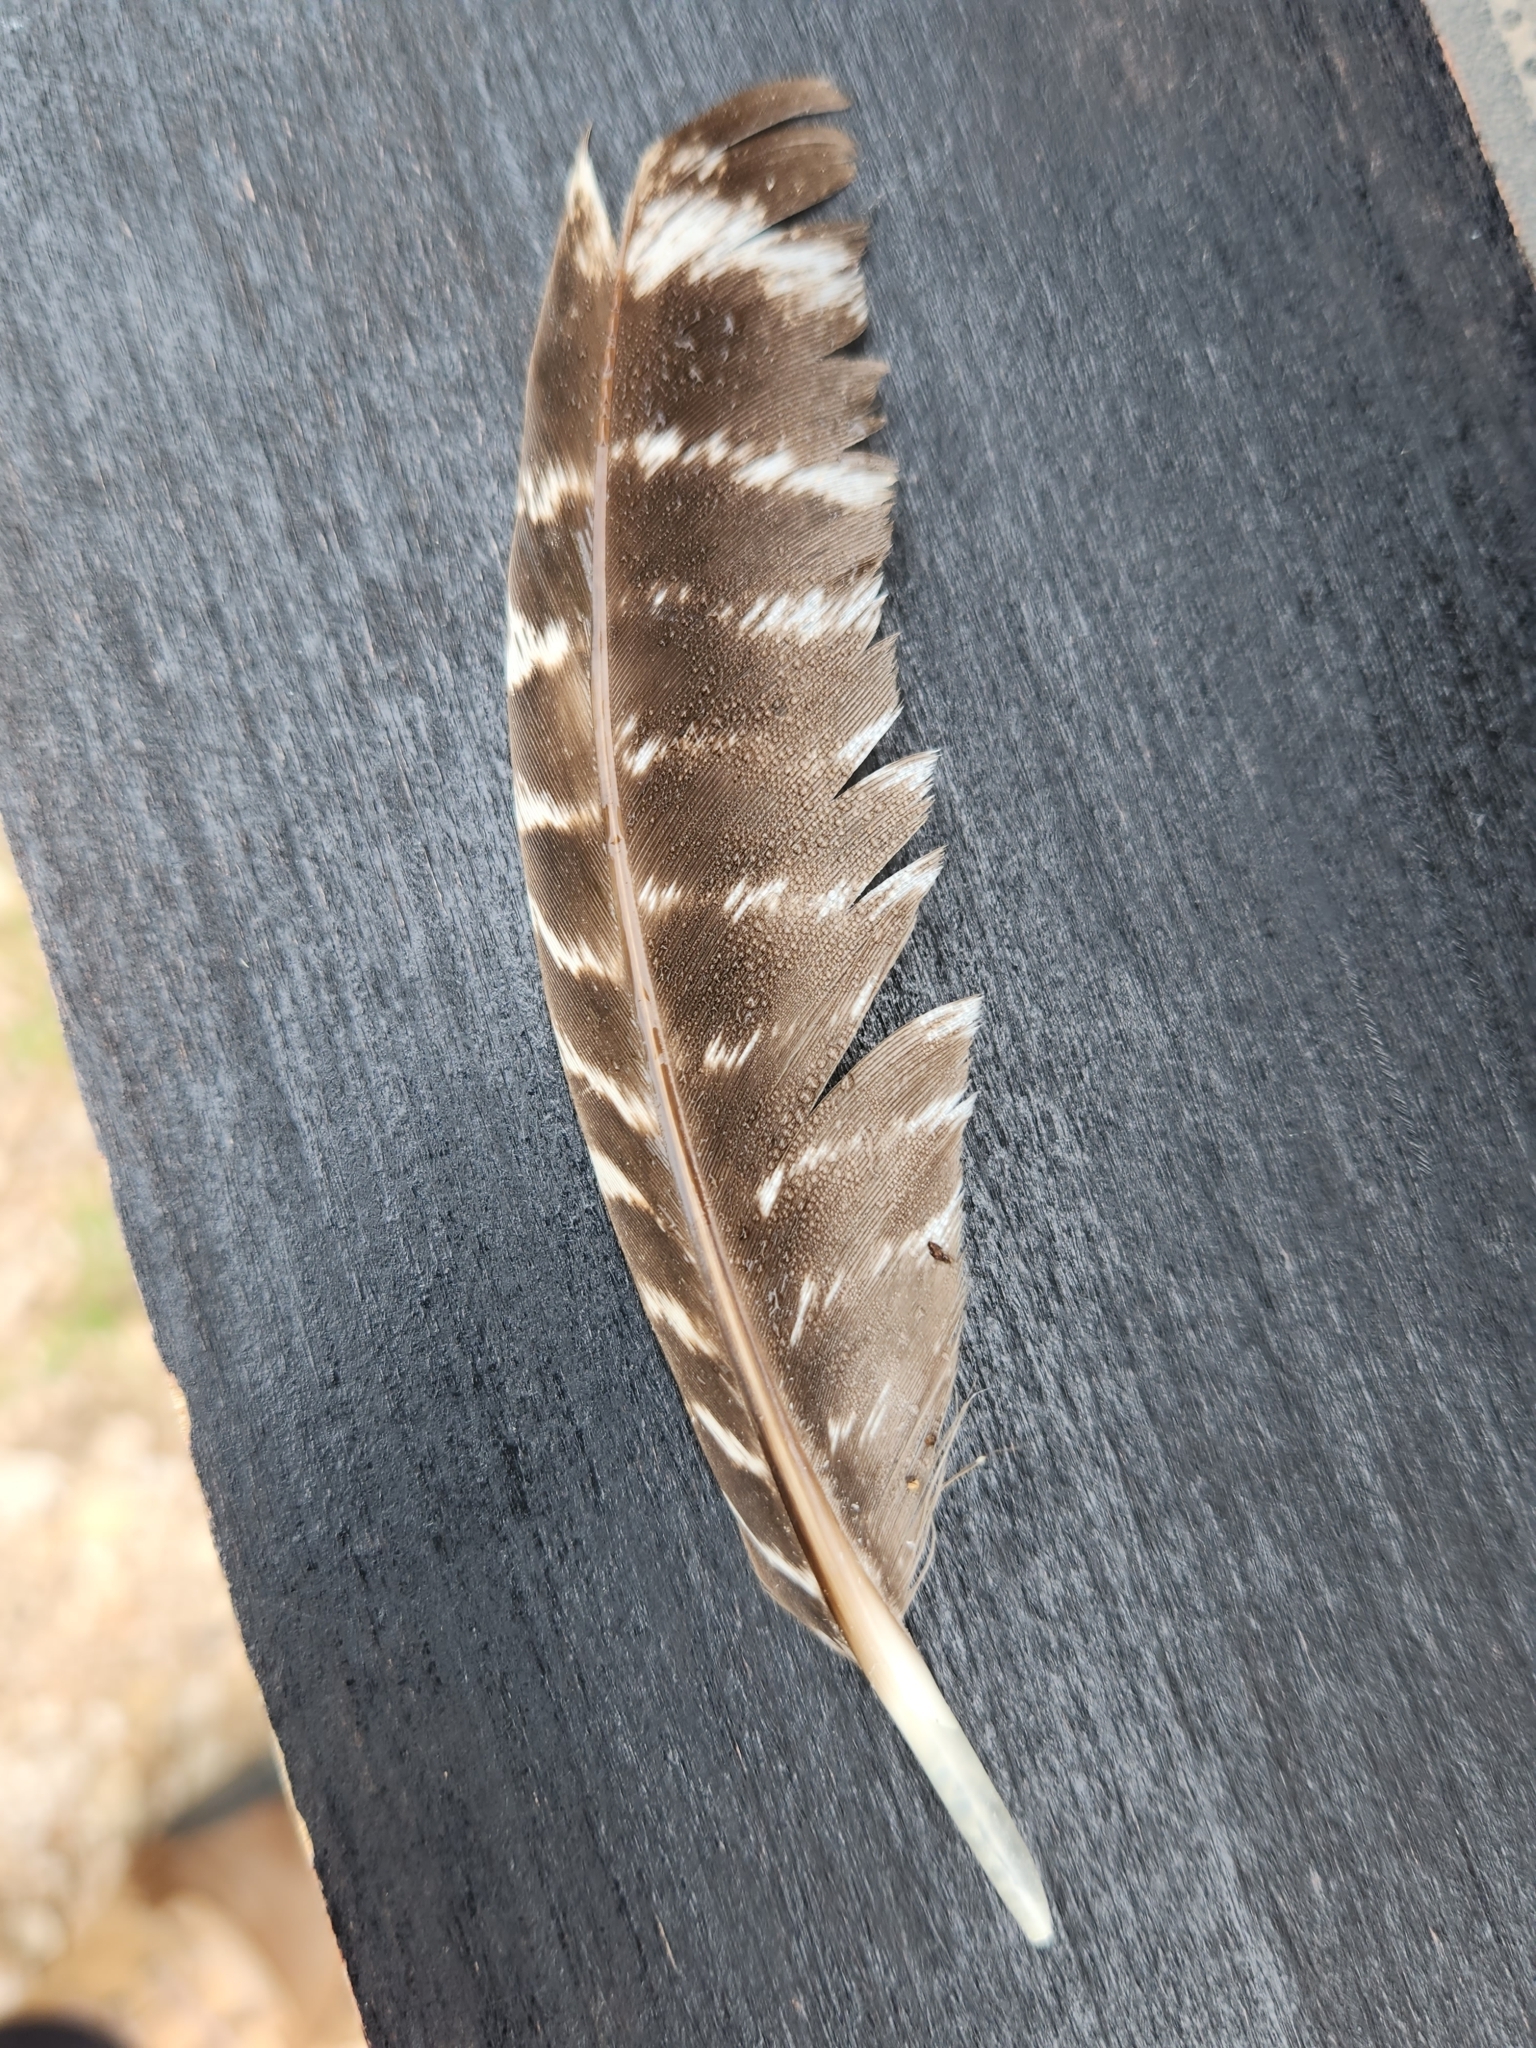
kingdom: Animalia
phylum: Chordata
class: Aves
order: Galliformes
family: Phasianidae
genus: Meleagris
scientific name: Meleagris gallopavo
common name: Wild turkey
